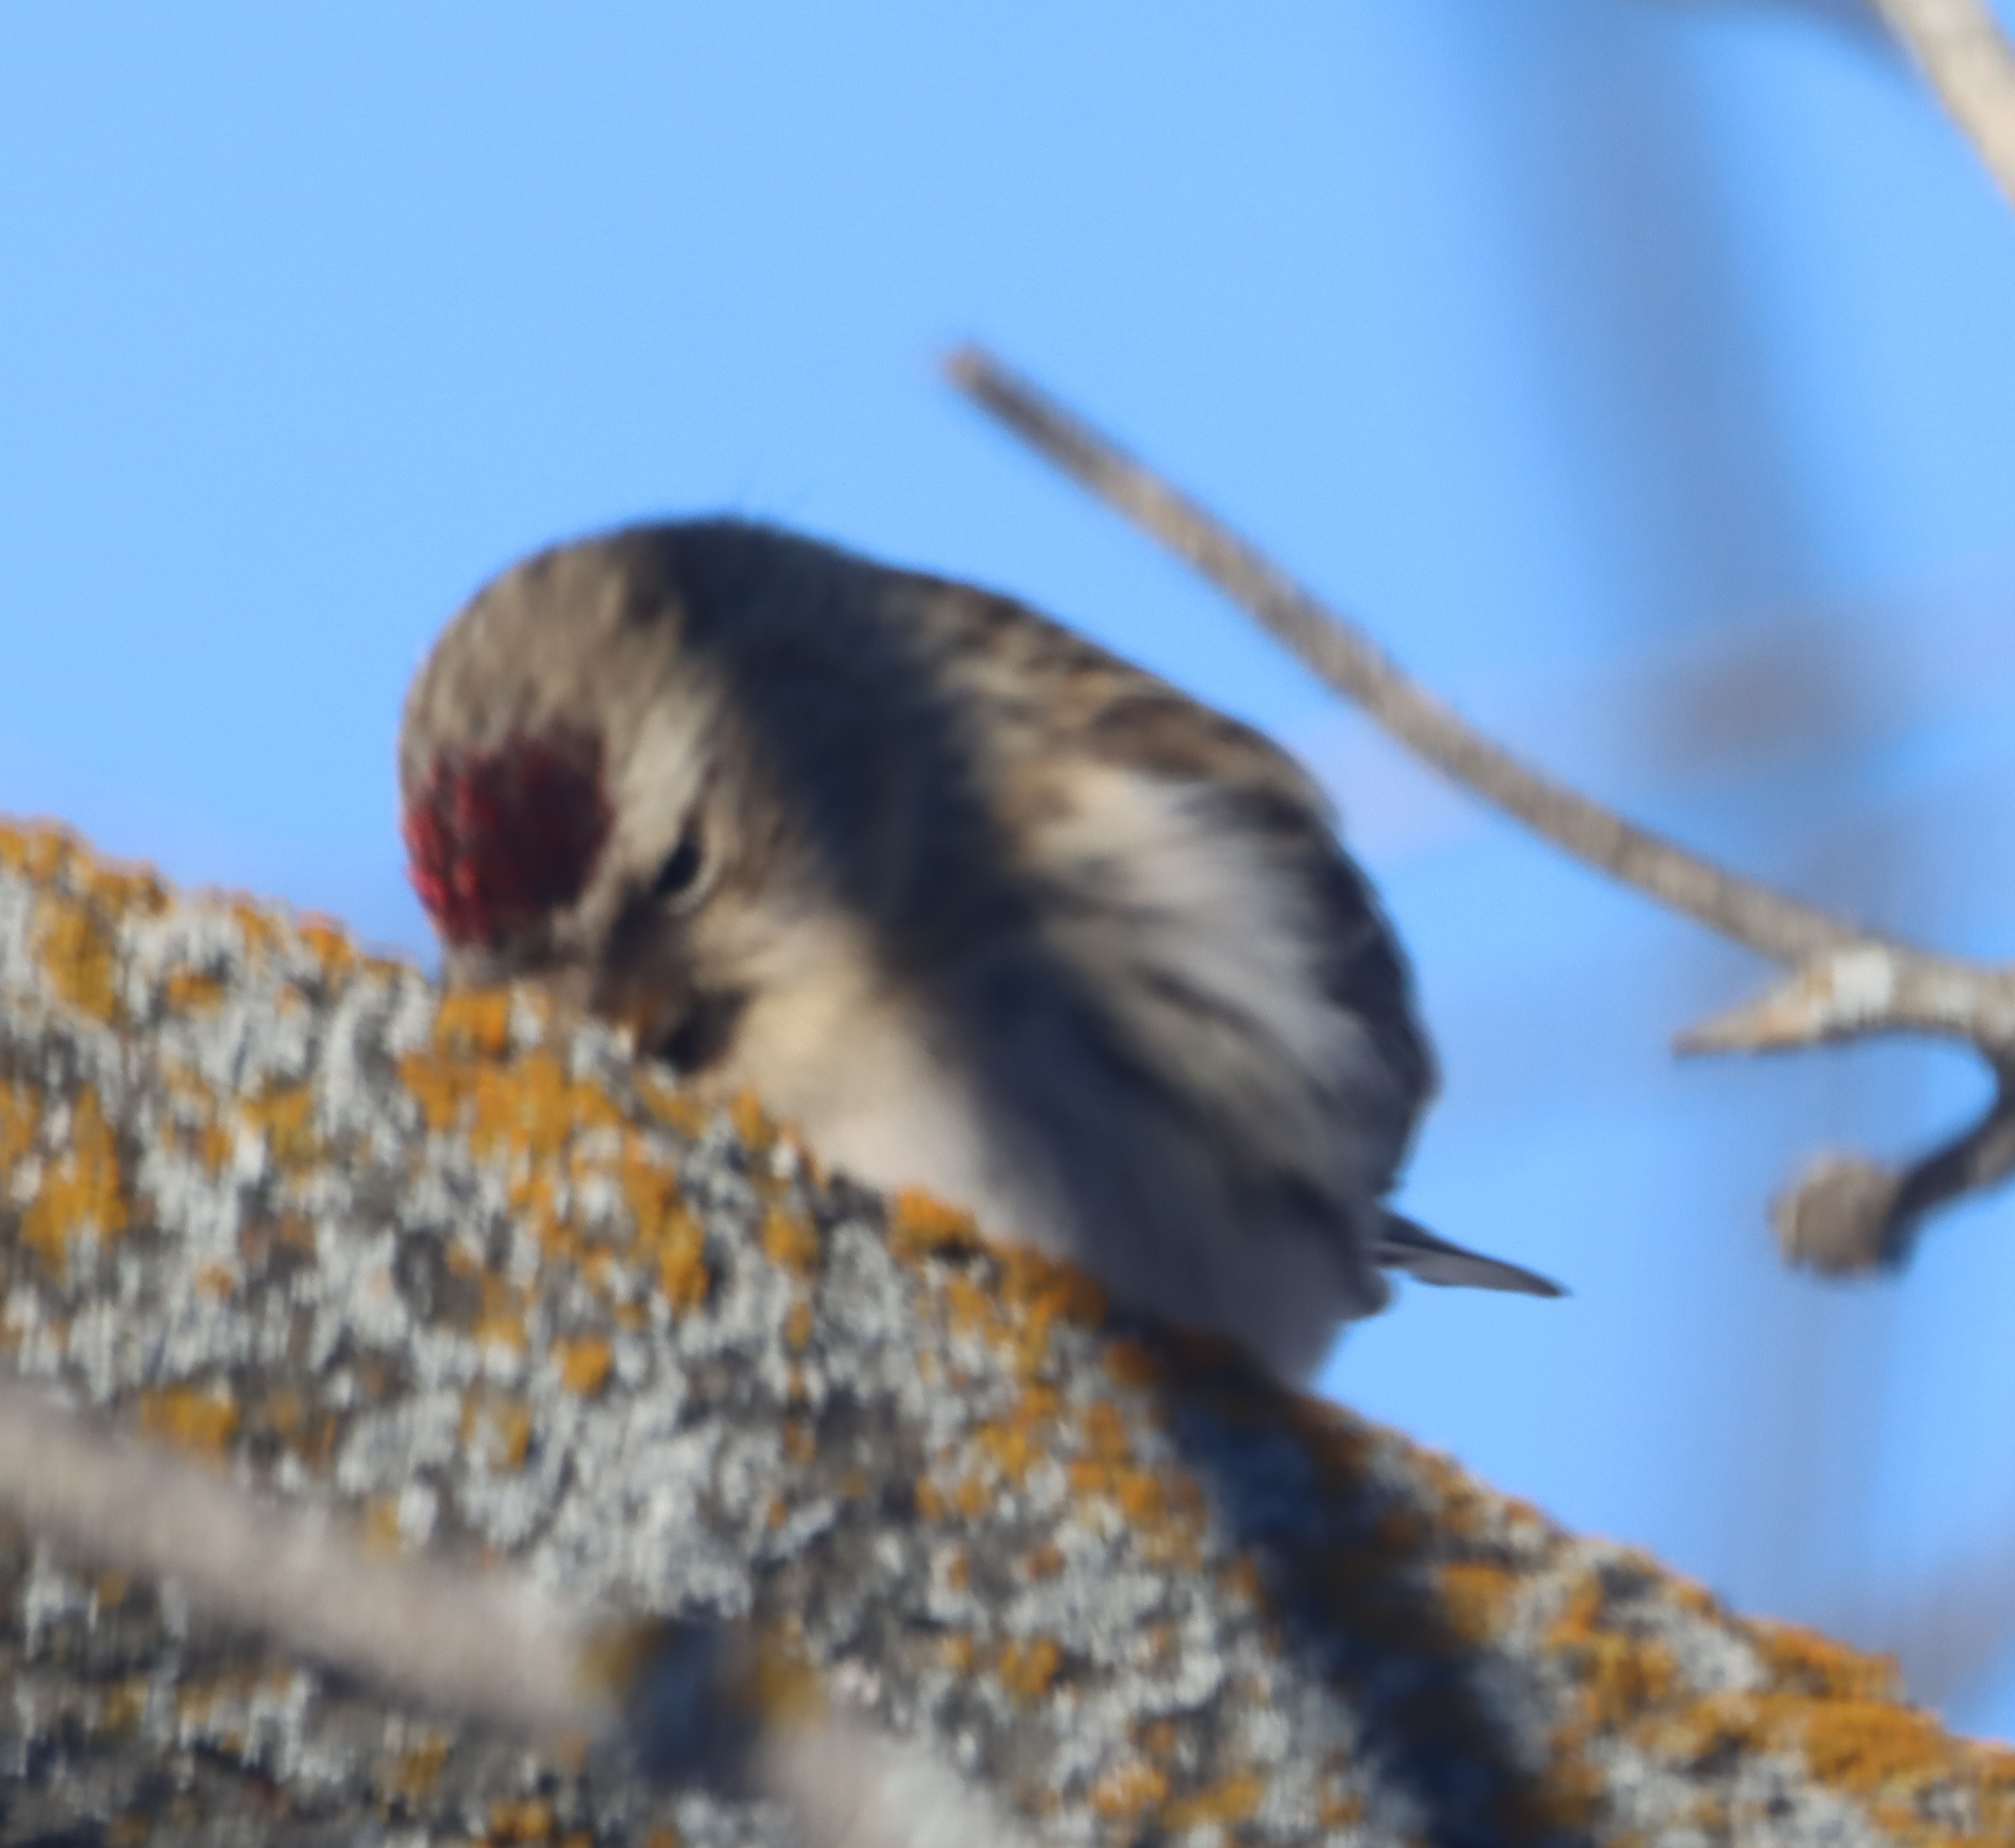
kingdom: Animalia
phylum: Chordata
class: Aves
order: Passeriformes
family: Fringillidae
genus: Acanthis
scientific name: Acanthis flammea
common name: Common redpoll
